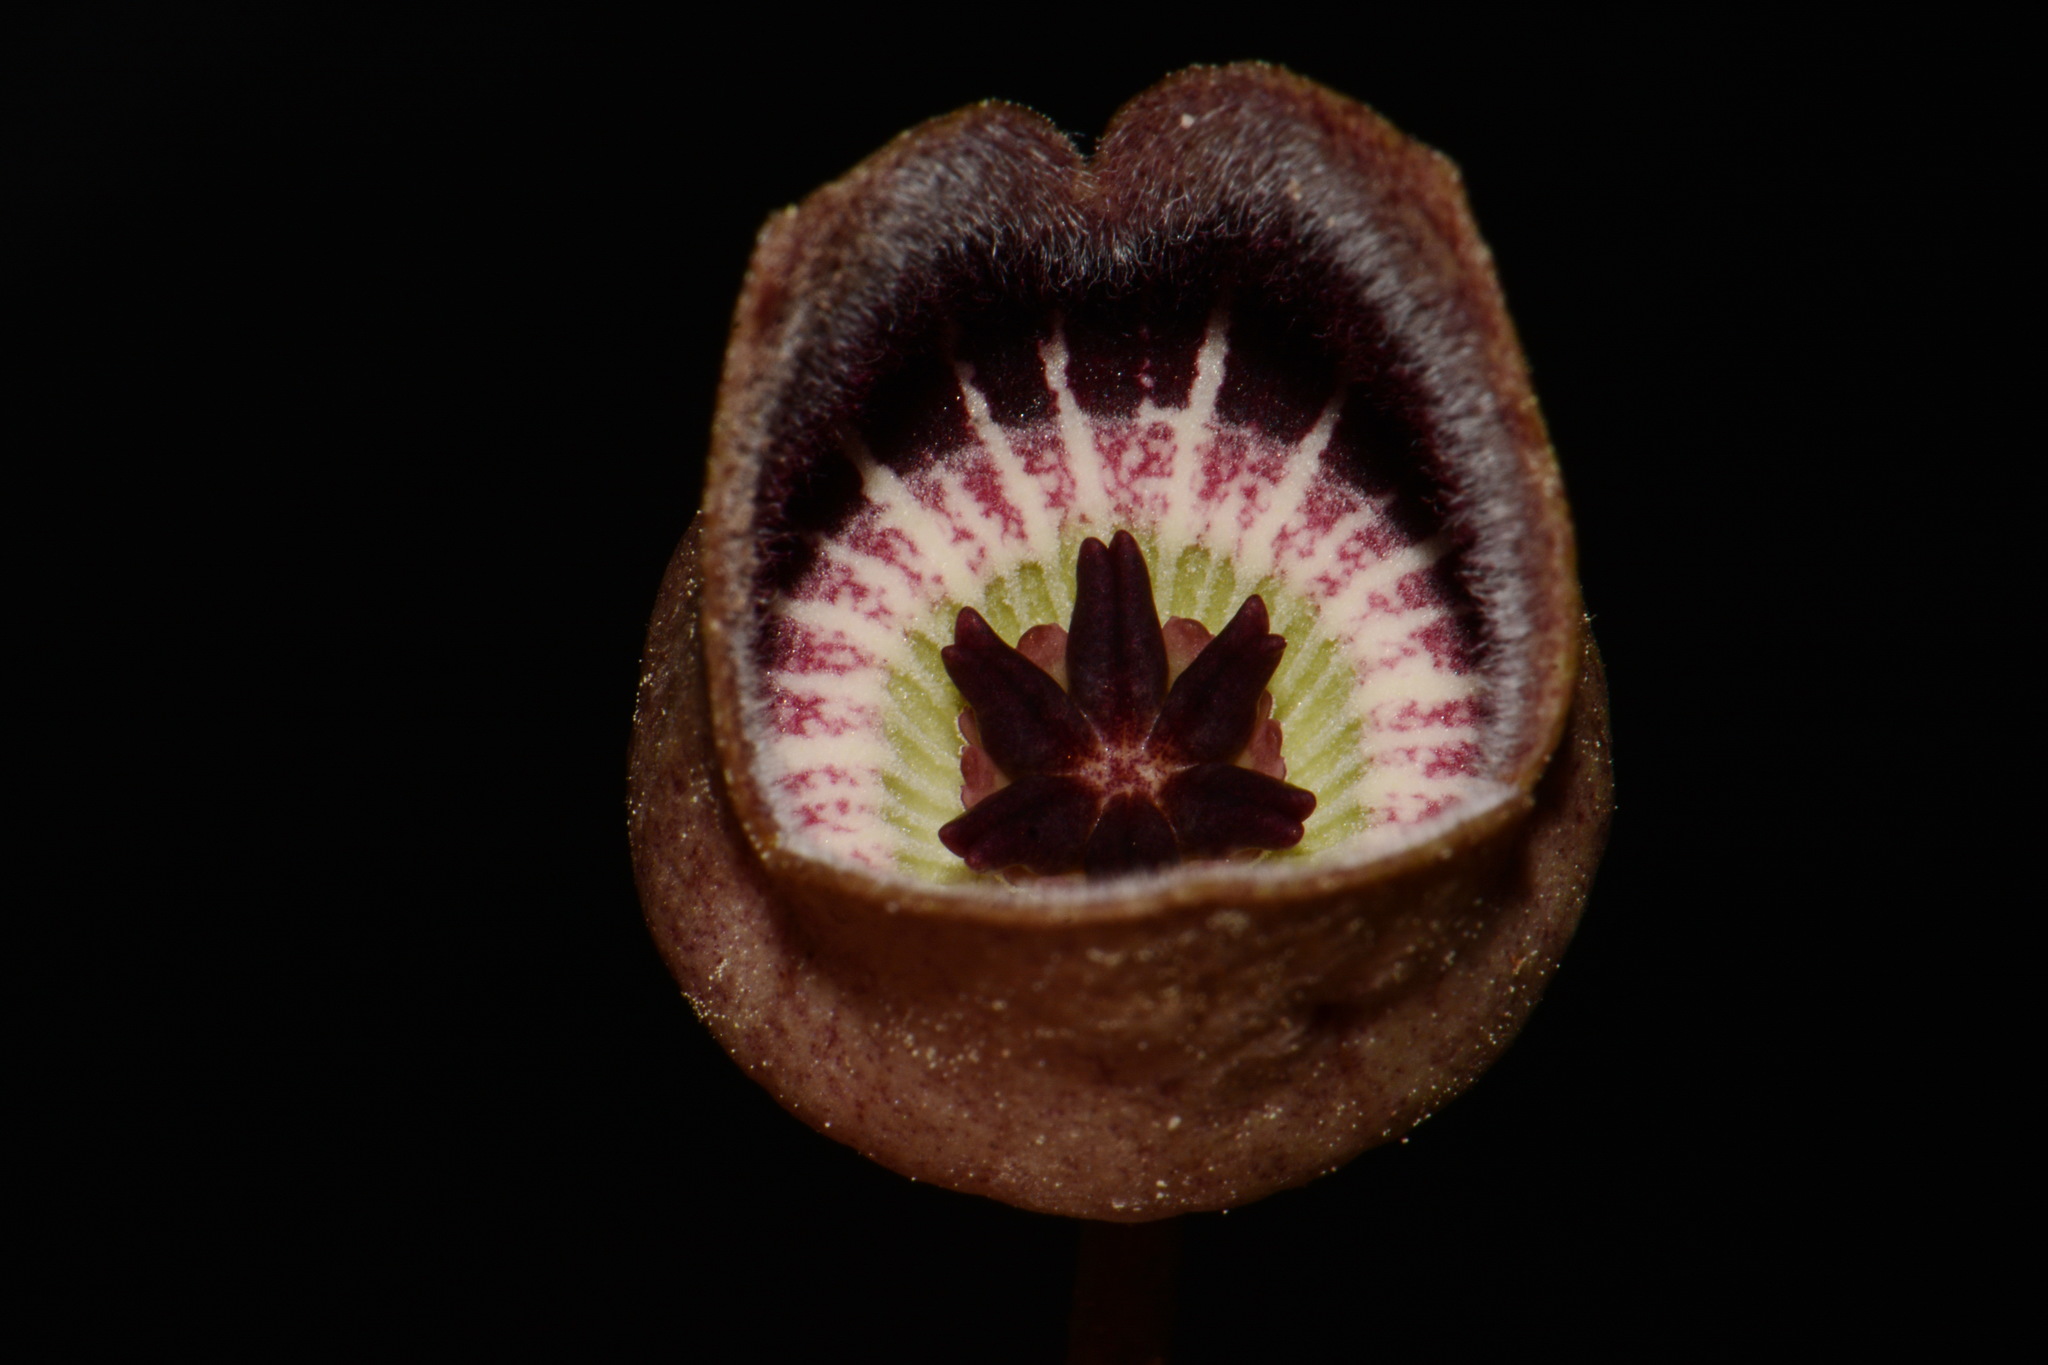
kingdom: Plantae
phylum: Tracheophyta
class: Magnoliopsida
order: Piperales
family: Aristolochiaceae
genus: Hexastylis
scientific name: Hexastylis finzelii
